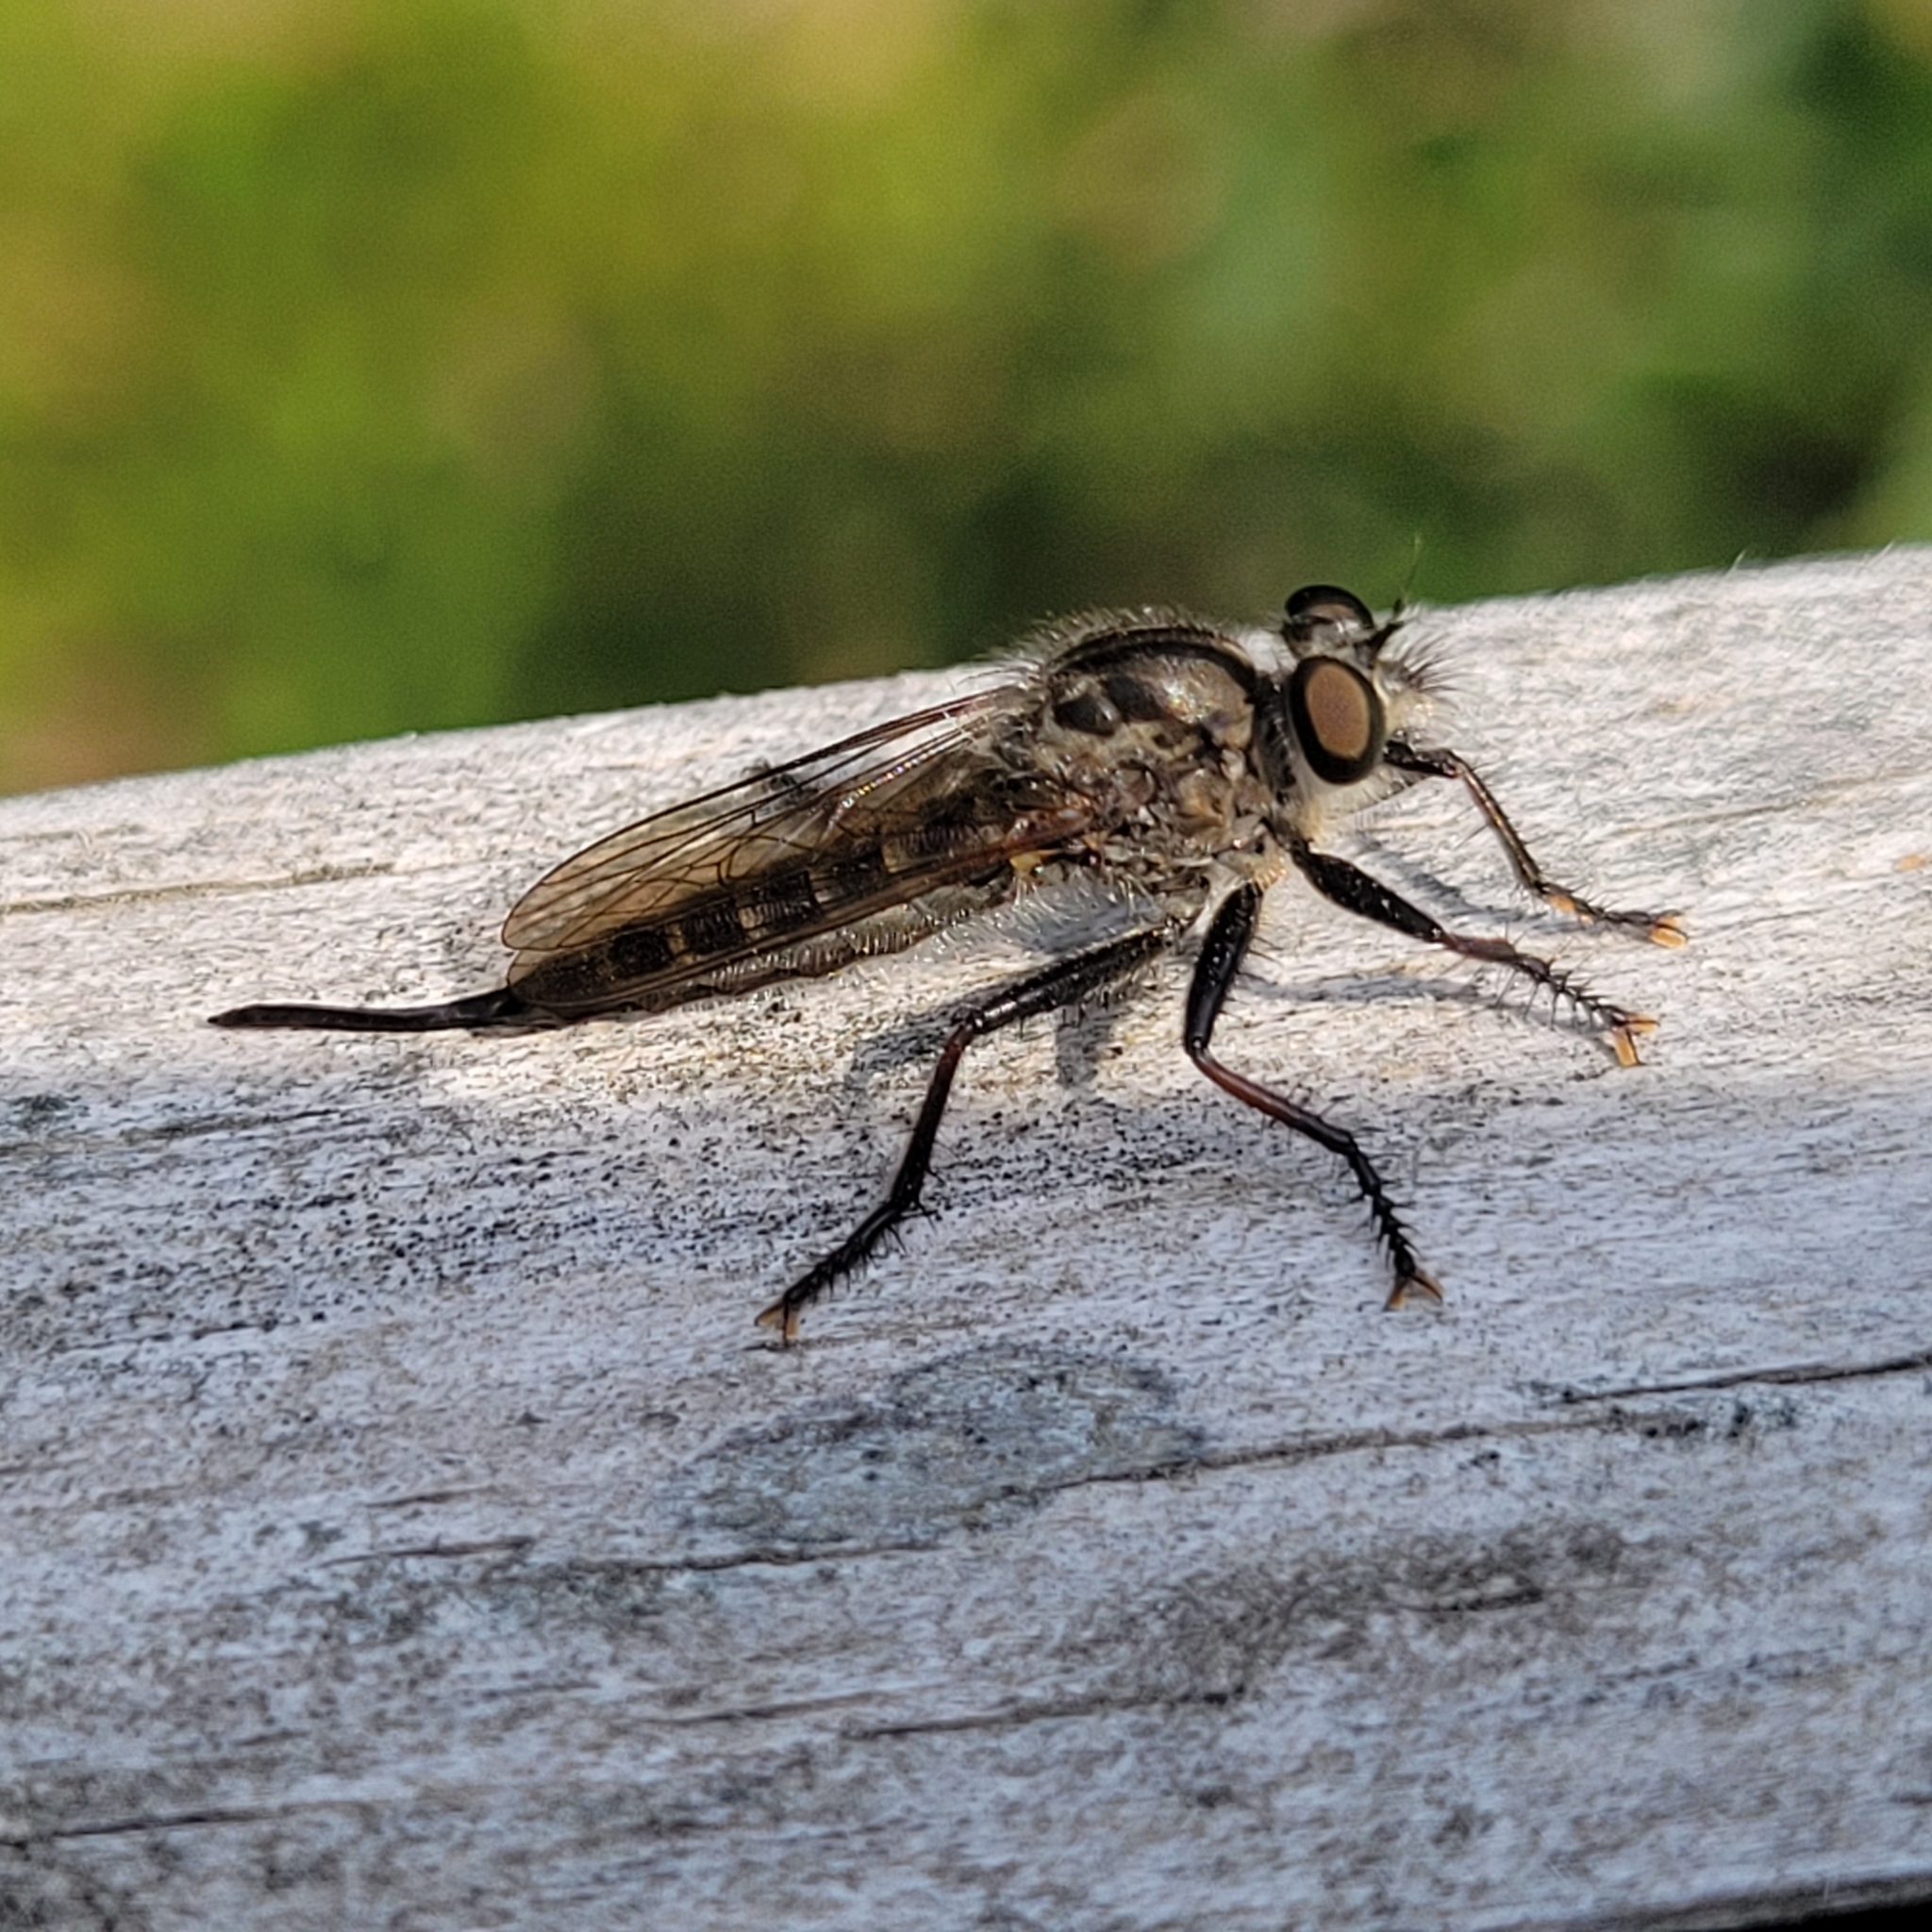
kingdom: Animalia
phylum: Arthropoda
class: Insecta
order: Diptera
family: Asilidae
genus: Efferia
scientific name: Efferia aestuans
